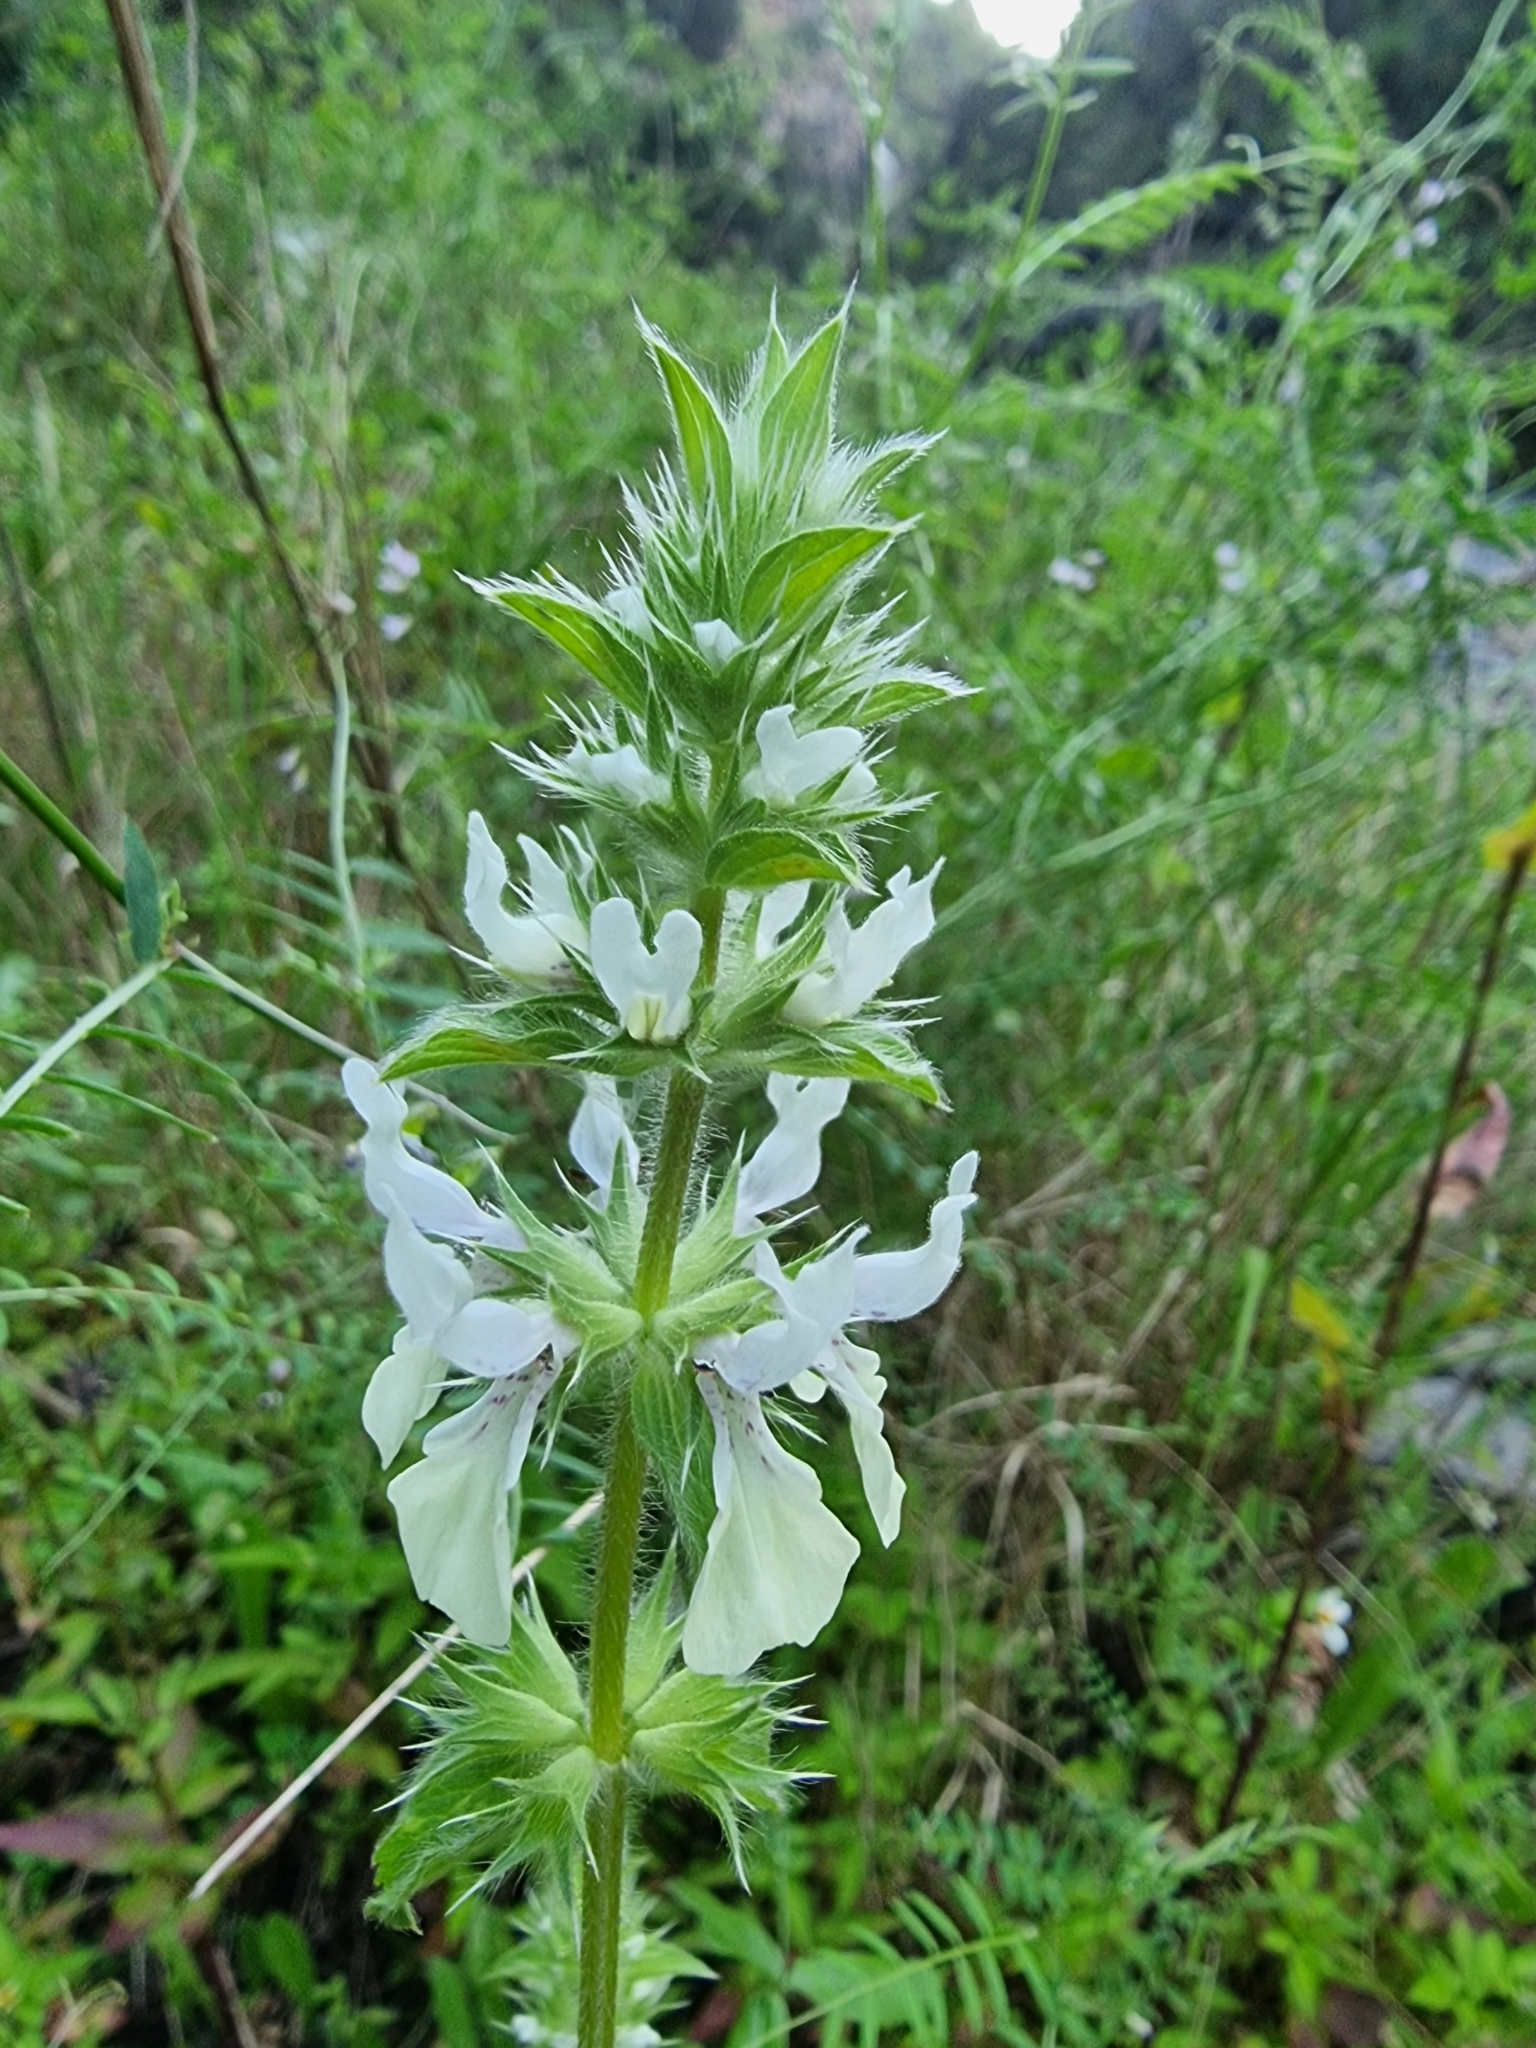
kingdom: Plantae
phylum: Tracheophyta
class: Magnoliopsida
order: Lamiales
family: Lamiaceae
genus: Stachys
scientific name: Stachys ocymastrum
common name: Italian hedgenettle
